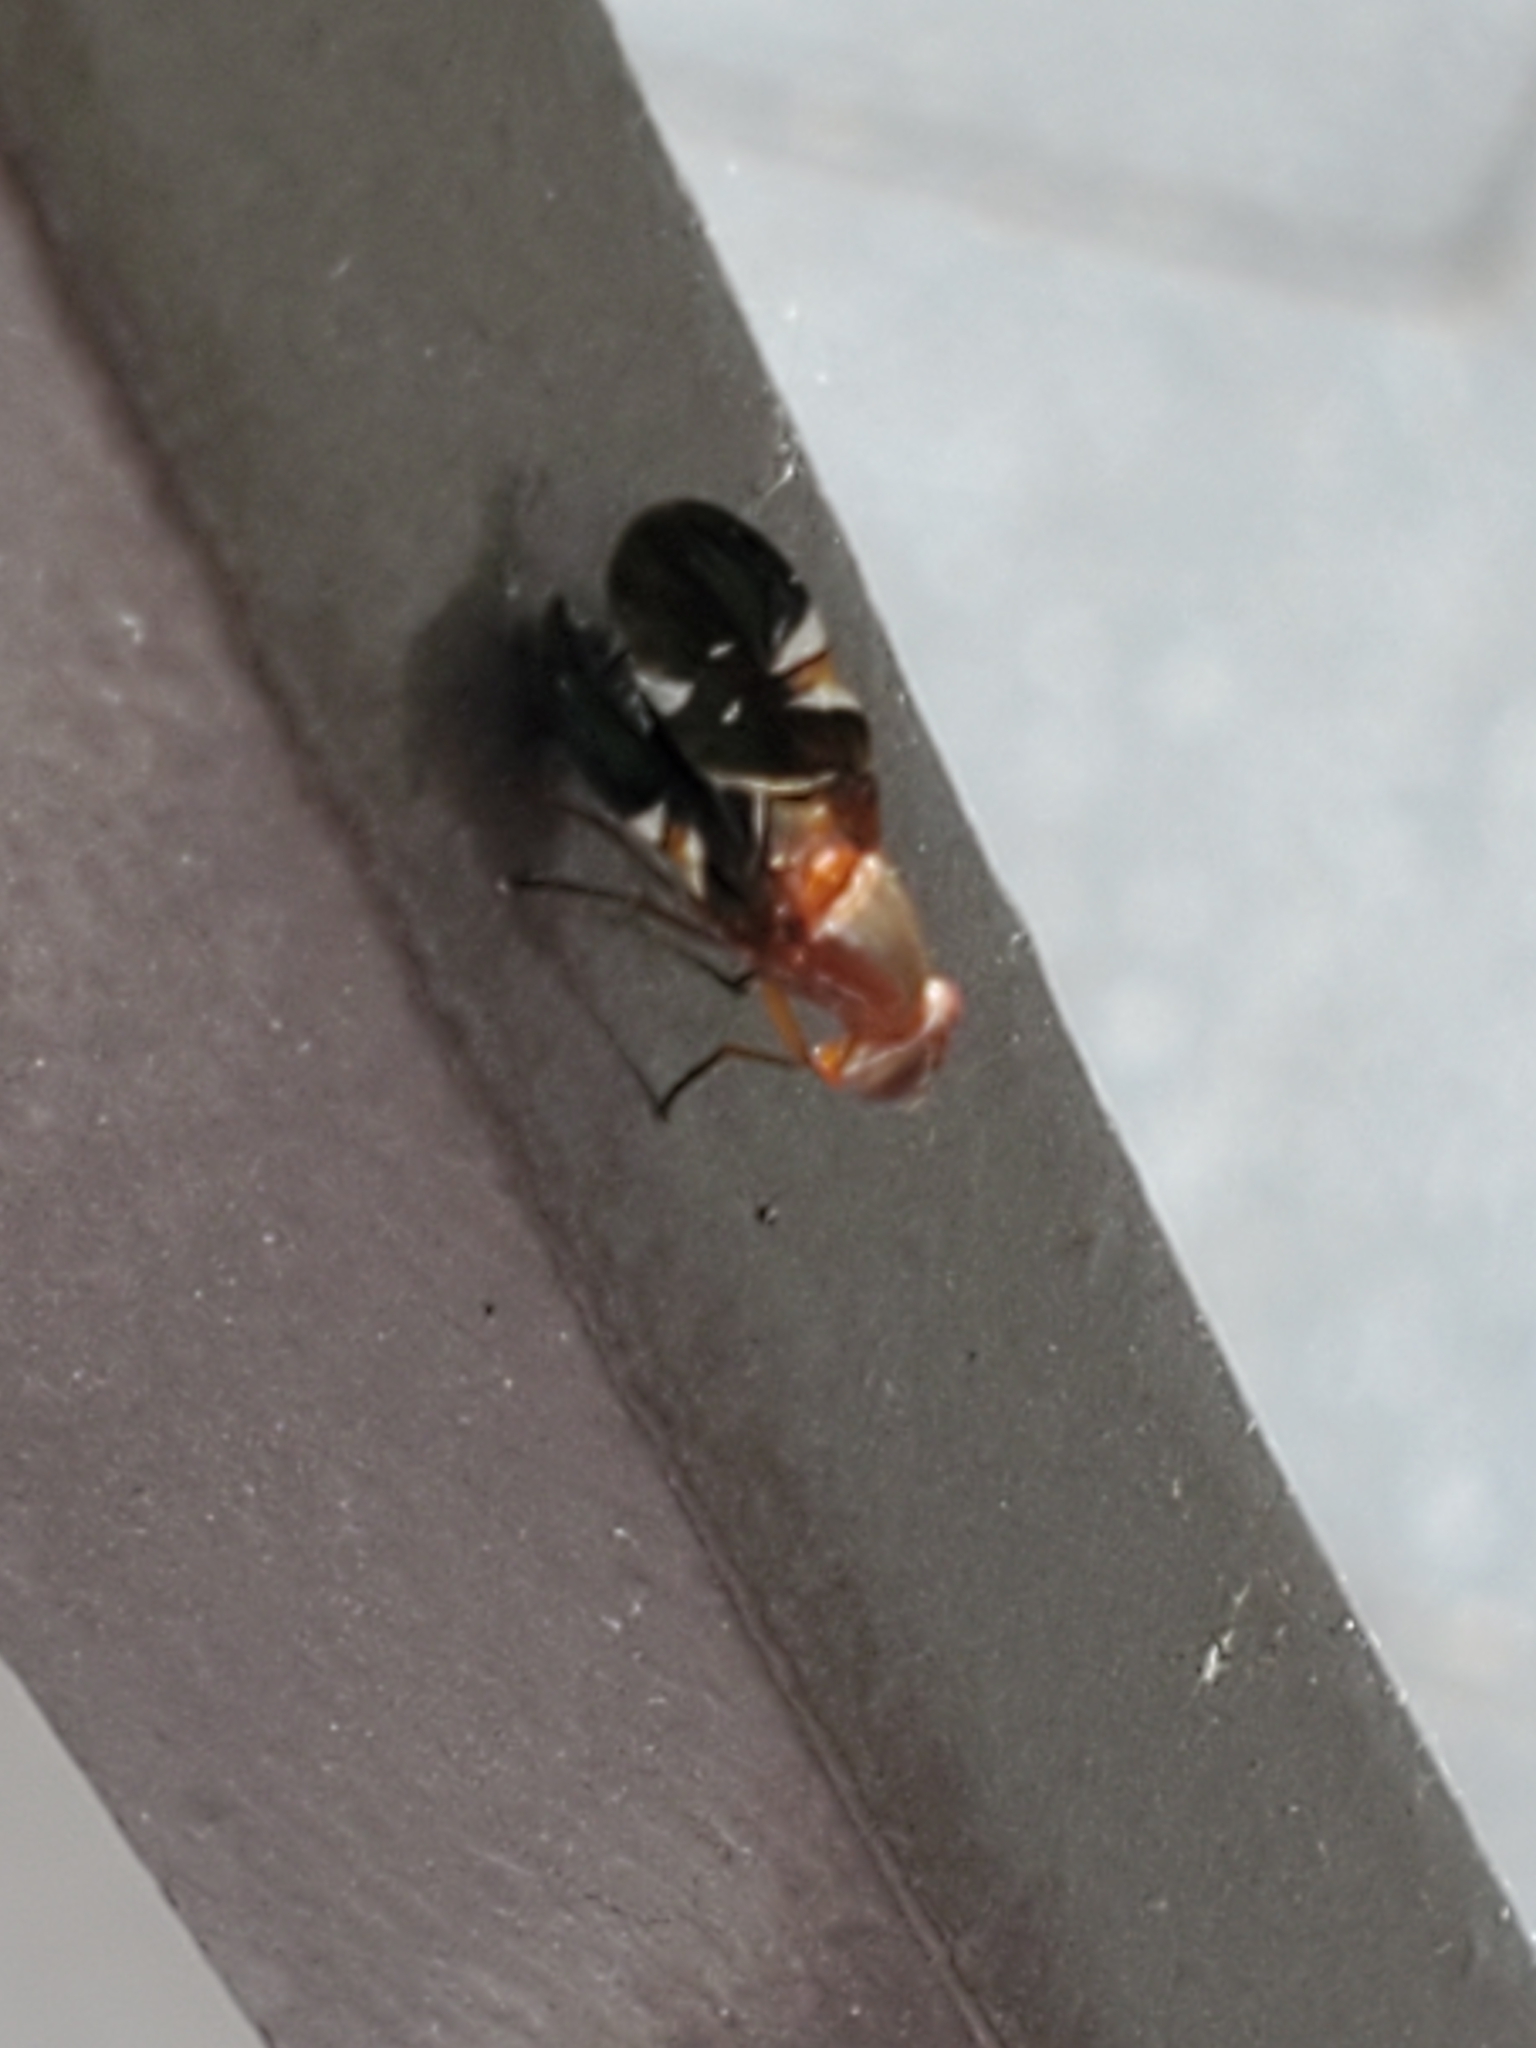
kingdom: Animalia
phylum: Arthropoda
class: Insecta
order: Diptera
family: Ulidiidae
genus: Delphinia
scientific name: Delphinia picta
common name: Common picture-winged fly
